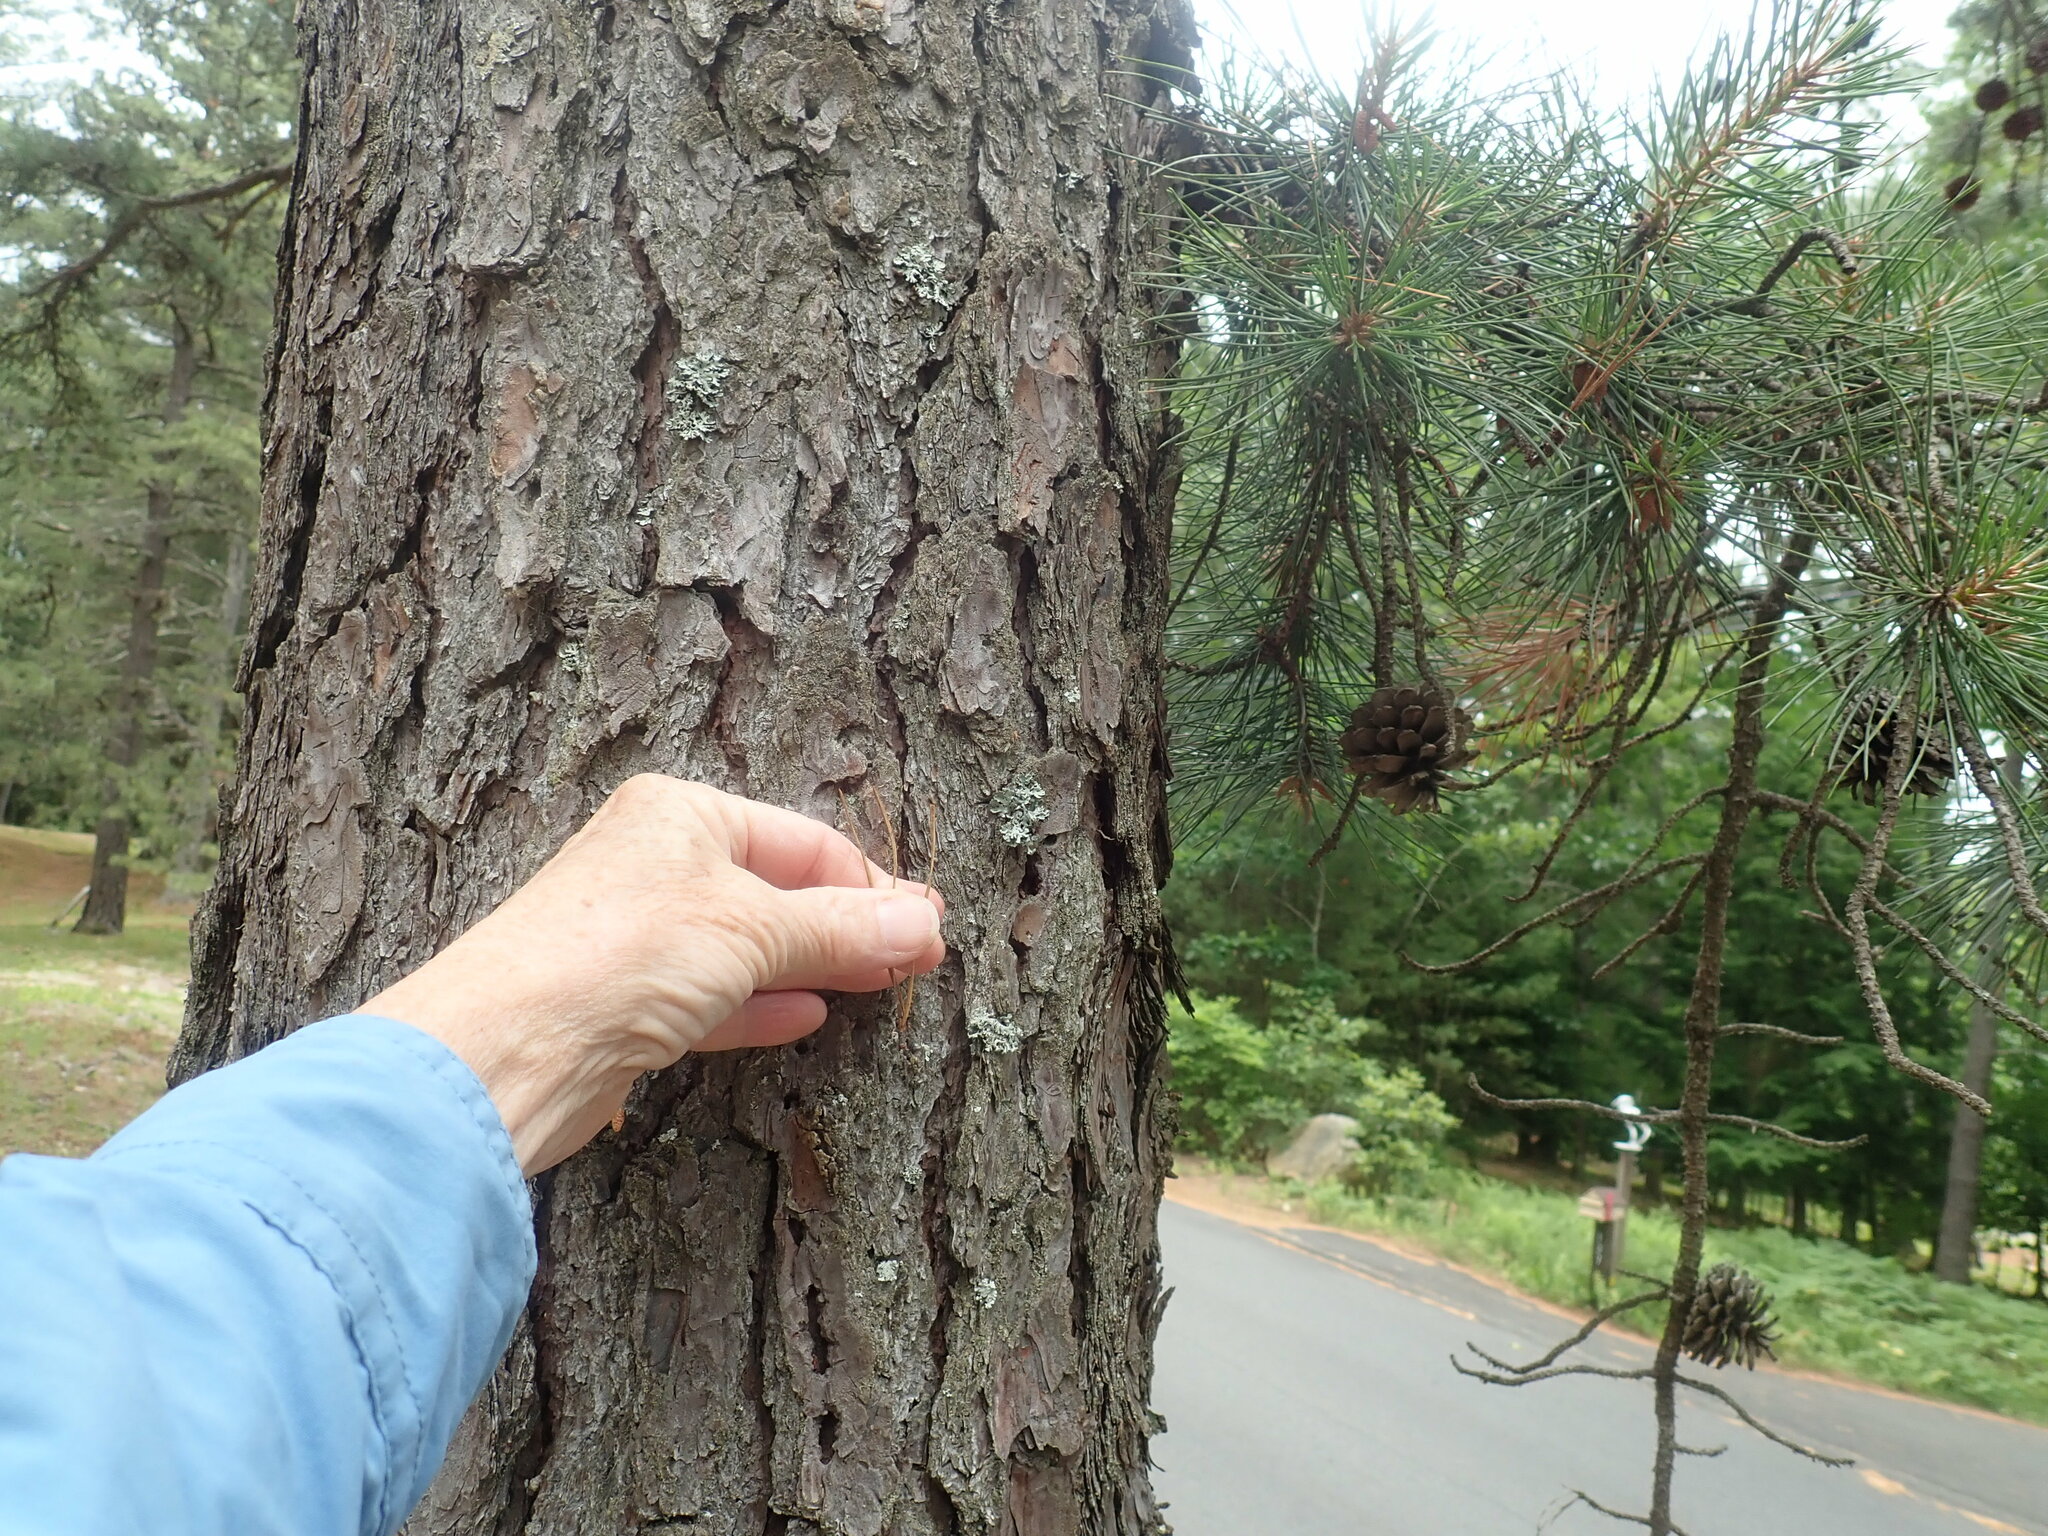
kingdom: Plantae
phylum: Tracheophyta
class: Pinopsida
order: Pinales
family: Pinaceae
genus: Pinus
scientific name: Pinus rigida
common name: Pitch pine
